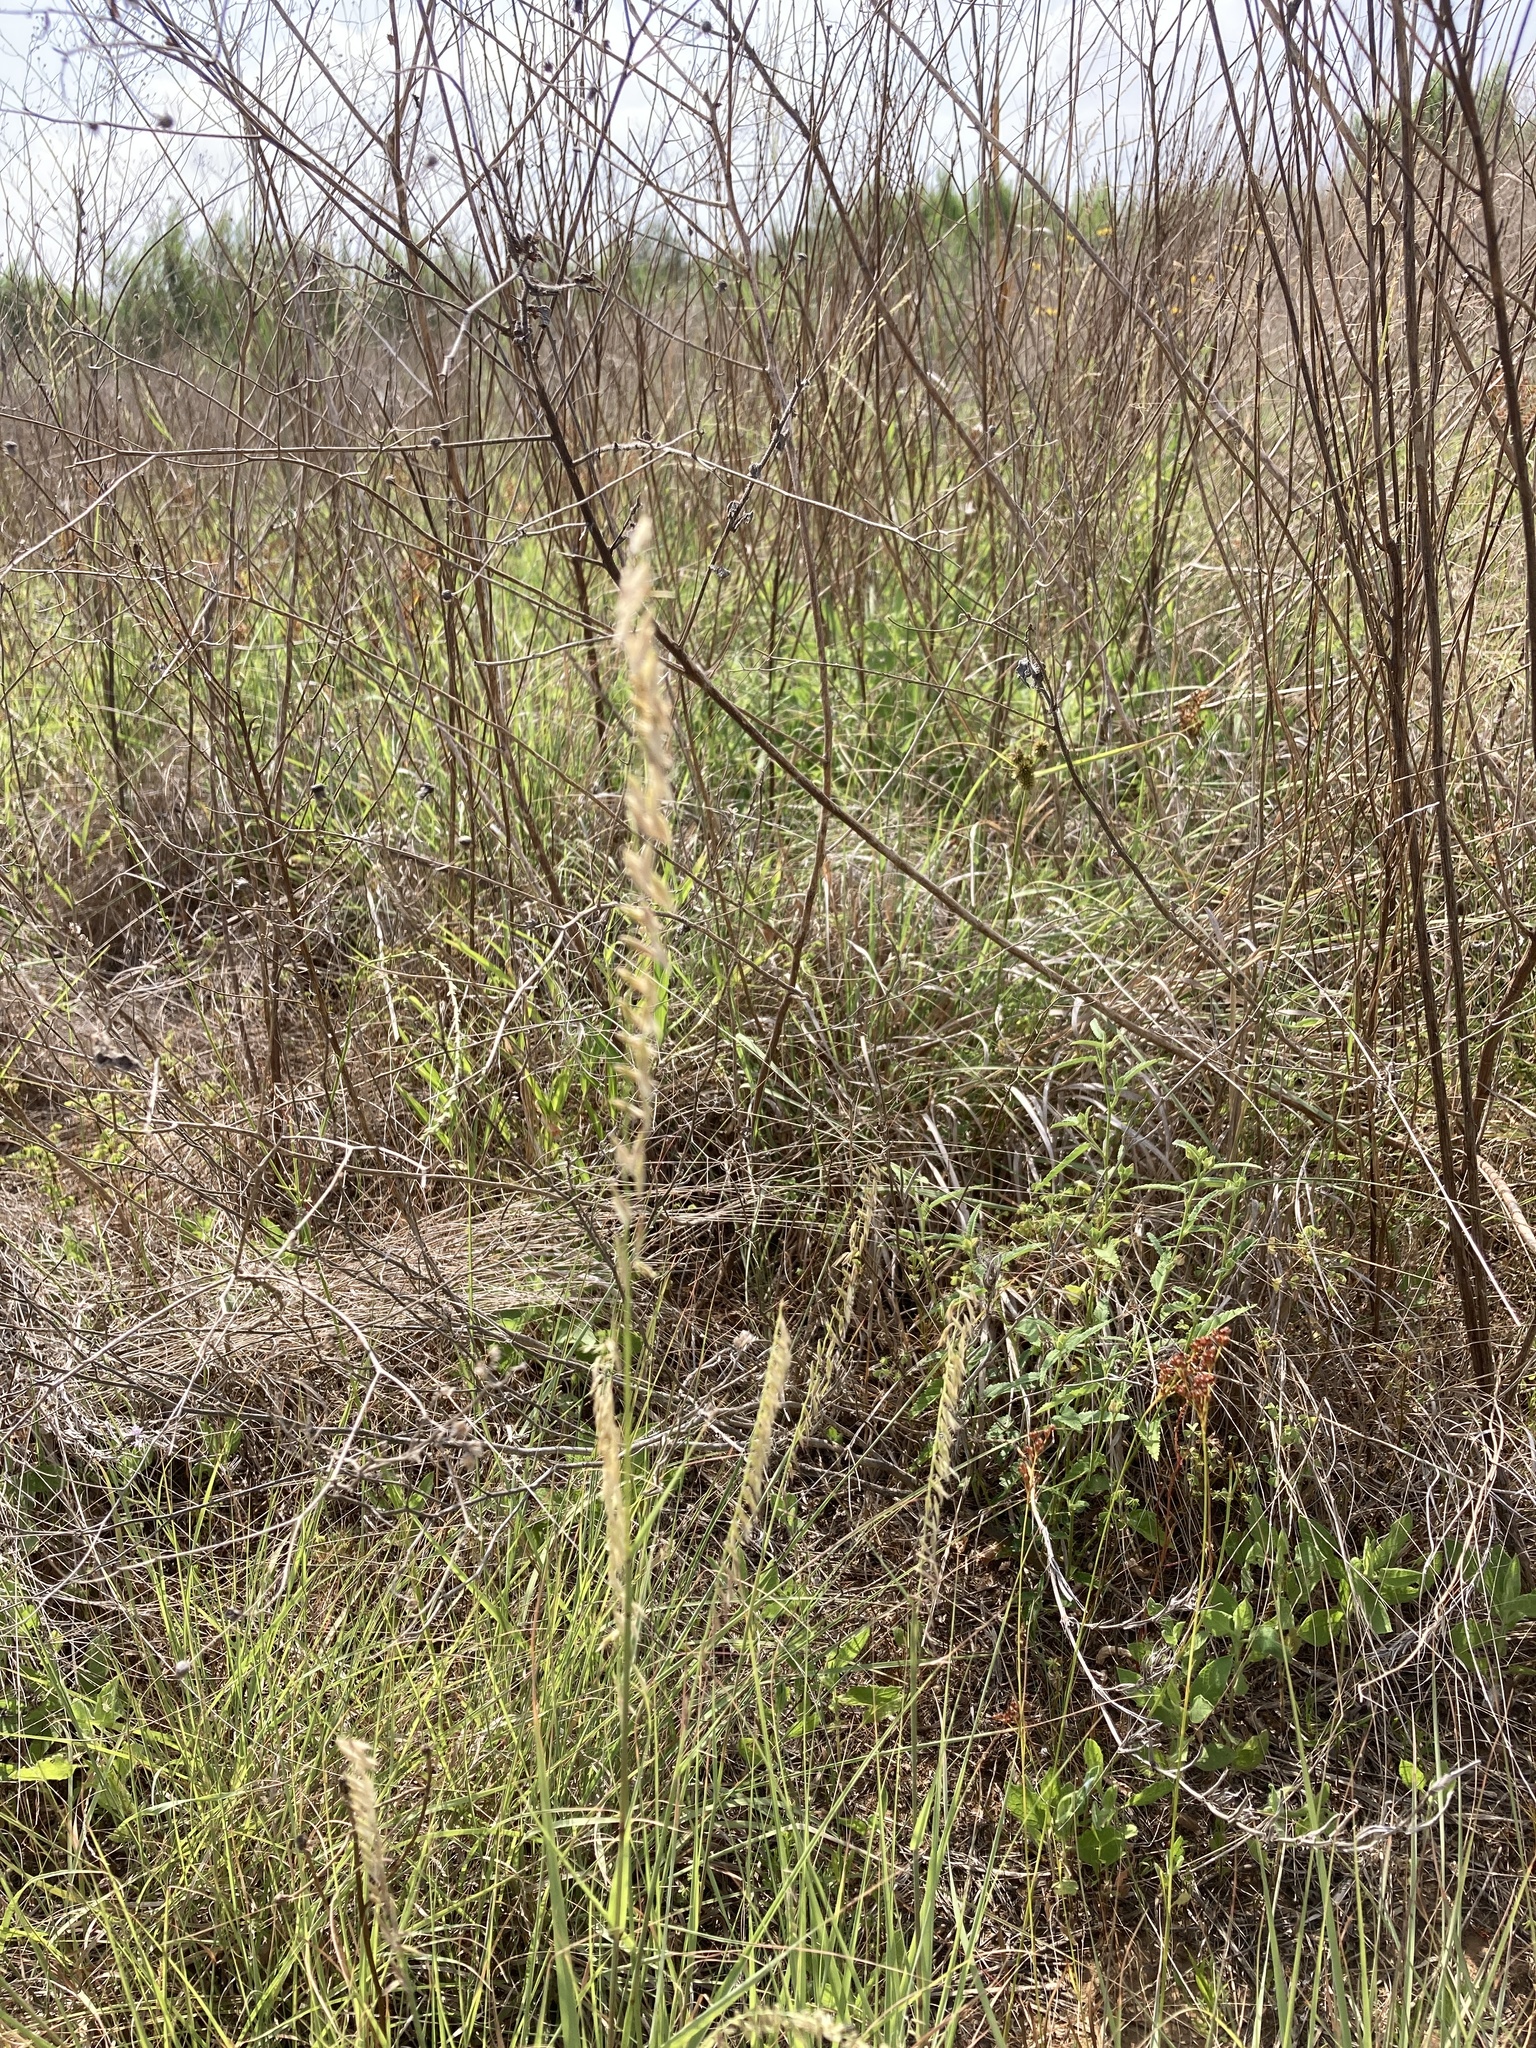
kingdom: Plantae
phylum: Tracheophyta
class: Liliopsida
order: Poales
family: Poaceae
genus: Bouteloua
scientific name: Bouteloua curtipendula
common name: Side-oats grama
